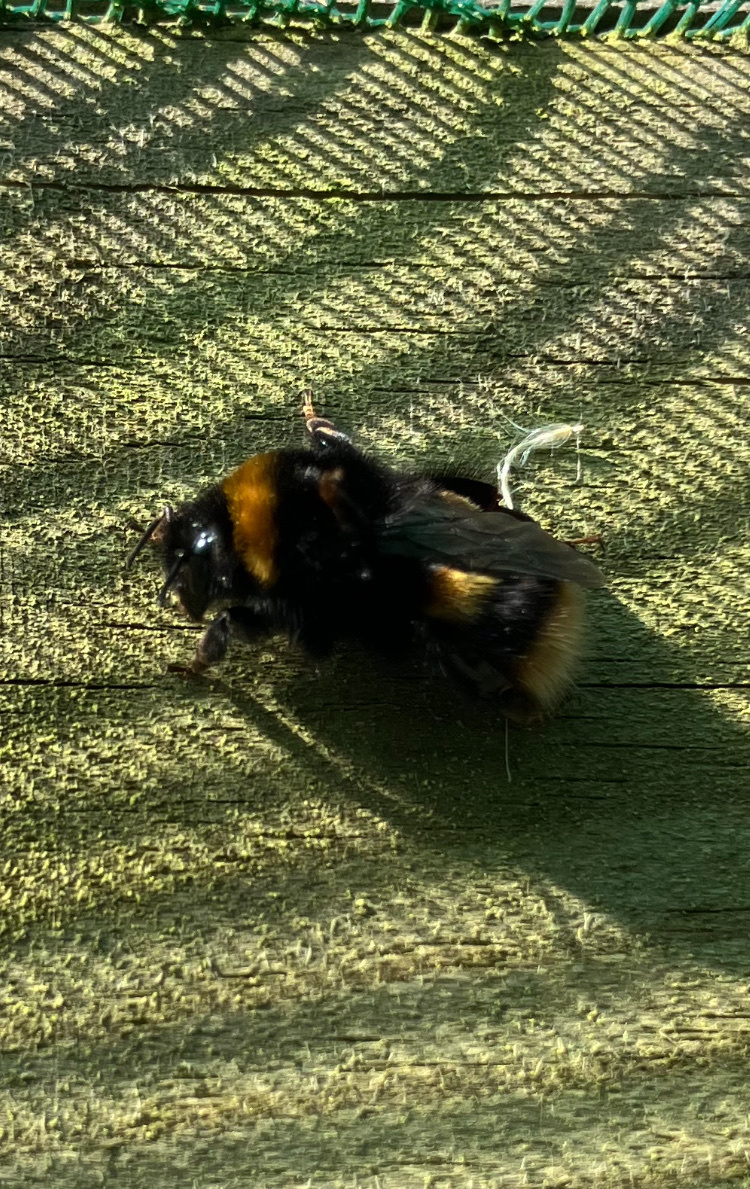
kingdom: Animalia
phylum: Arthropoda
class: Insecta
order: Hymenoptera
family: Apidae
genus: Bombus
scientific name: Bombus terrestris
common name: Buff-tailed bumblebee
